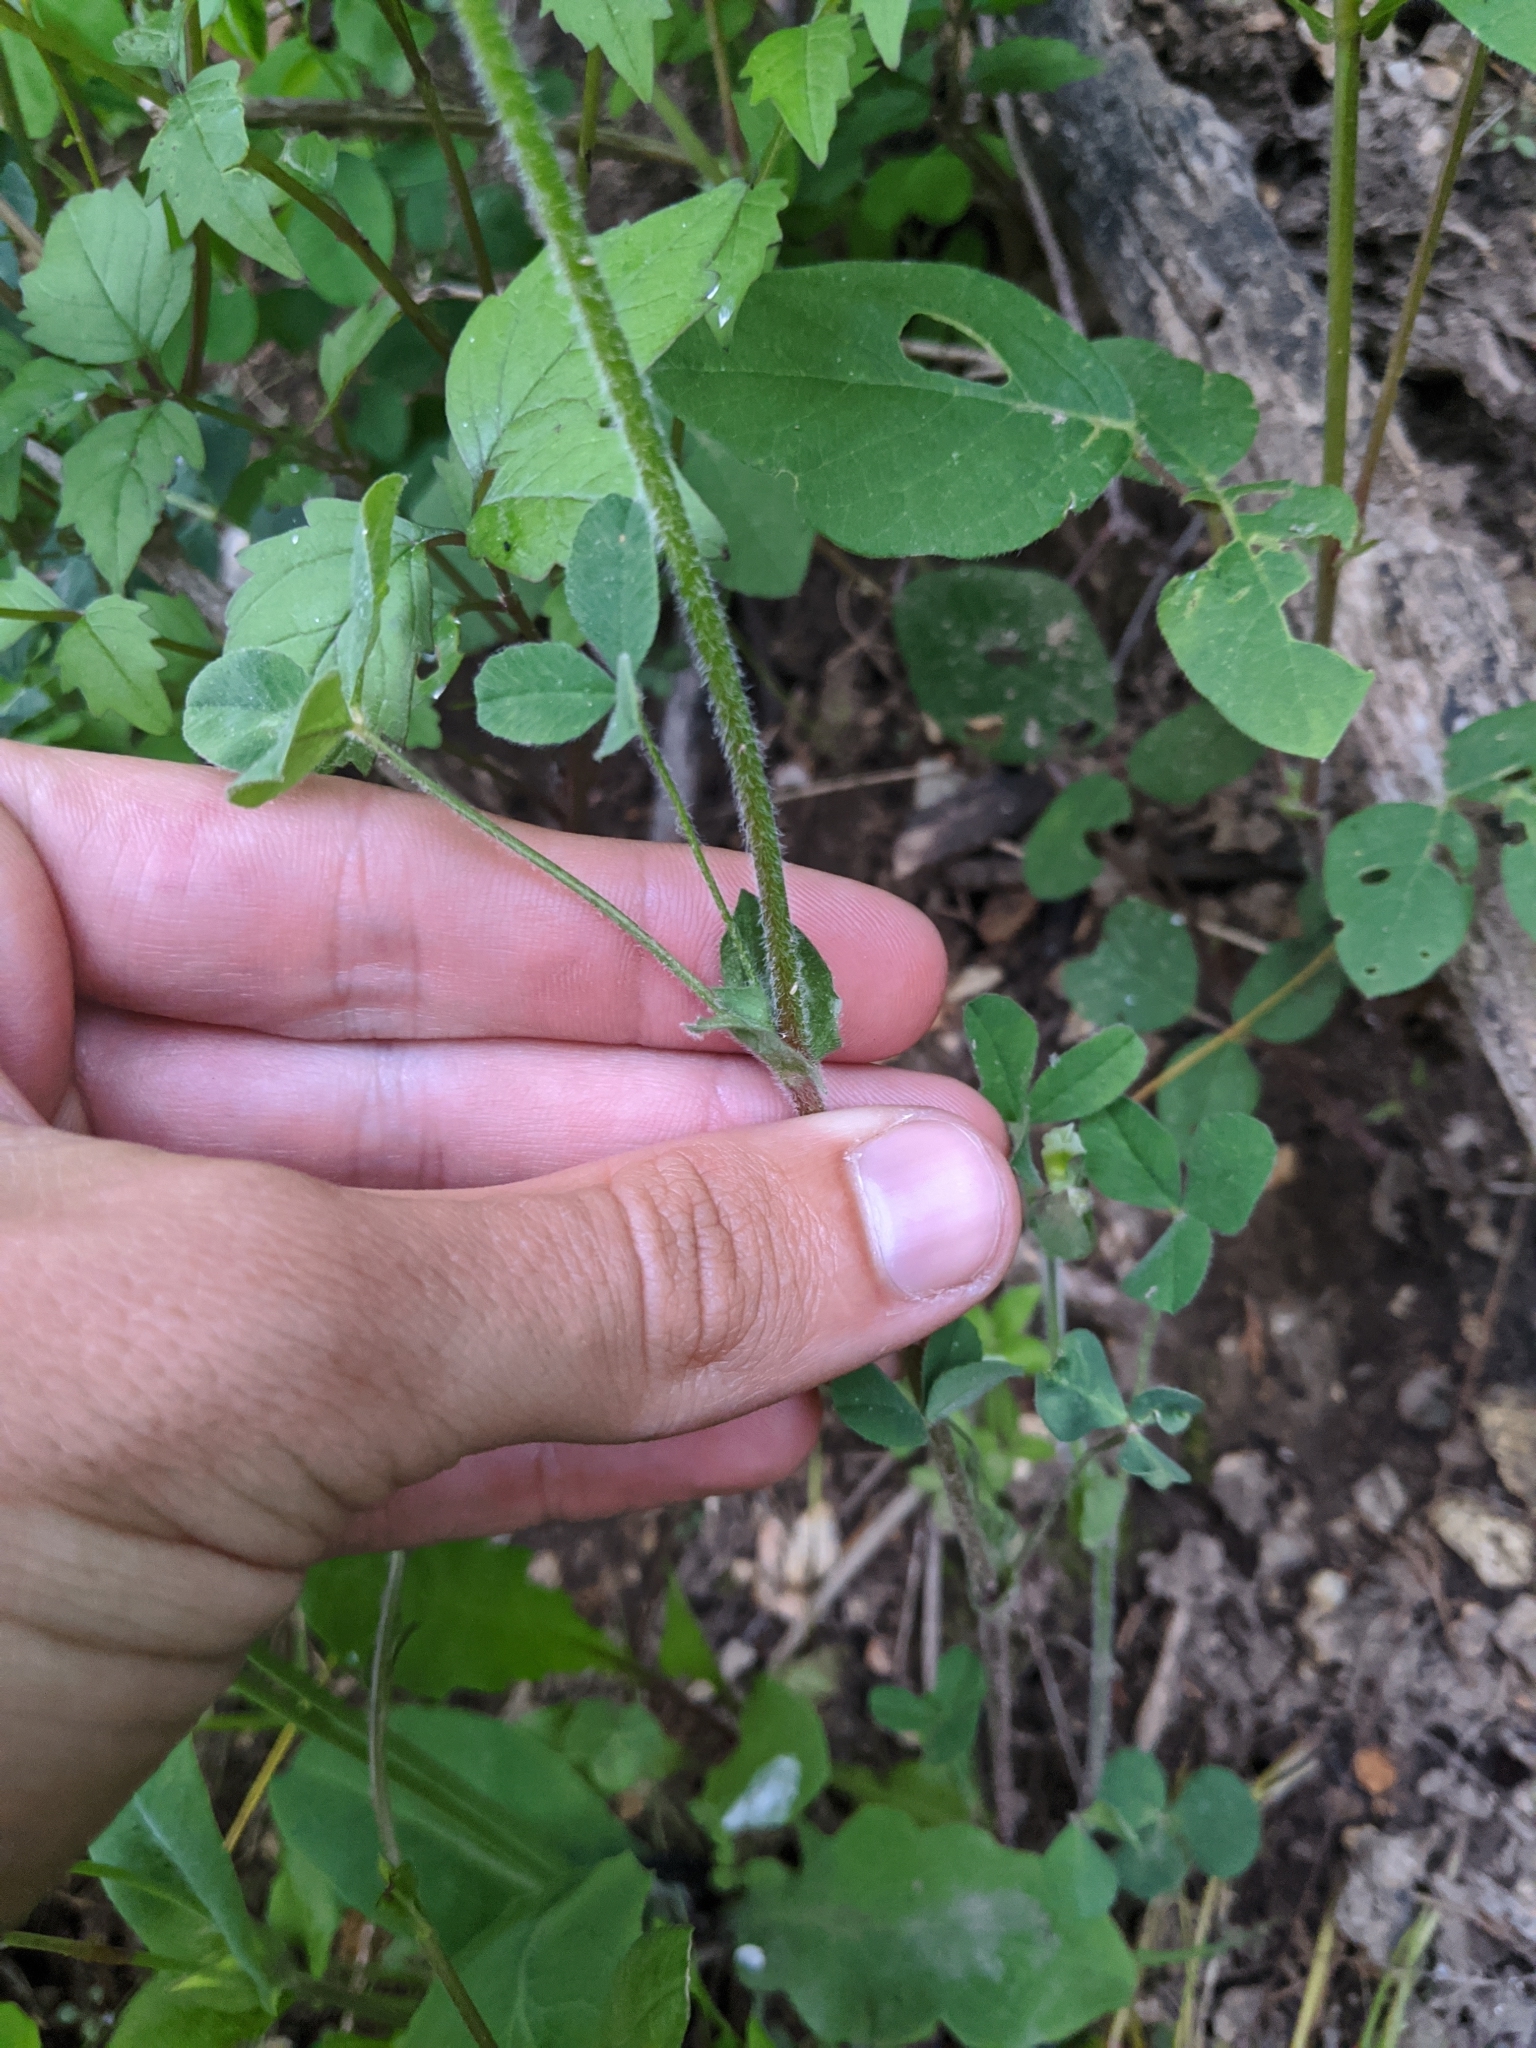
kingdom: Plantae
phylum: Tracheophyta
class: Magnoliopsida
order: Fabales
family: Fabaceae
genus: Trifolium
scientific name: Trifolium reflexum
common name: Buffalo clover
